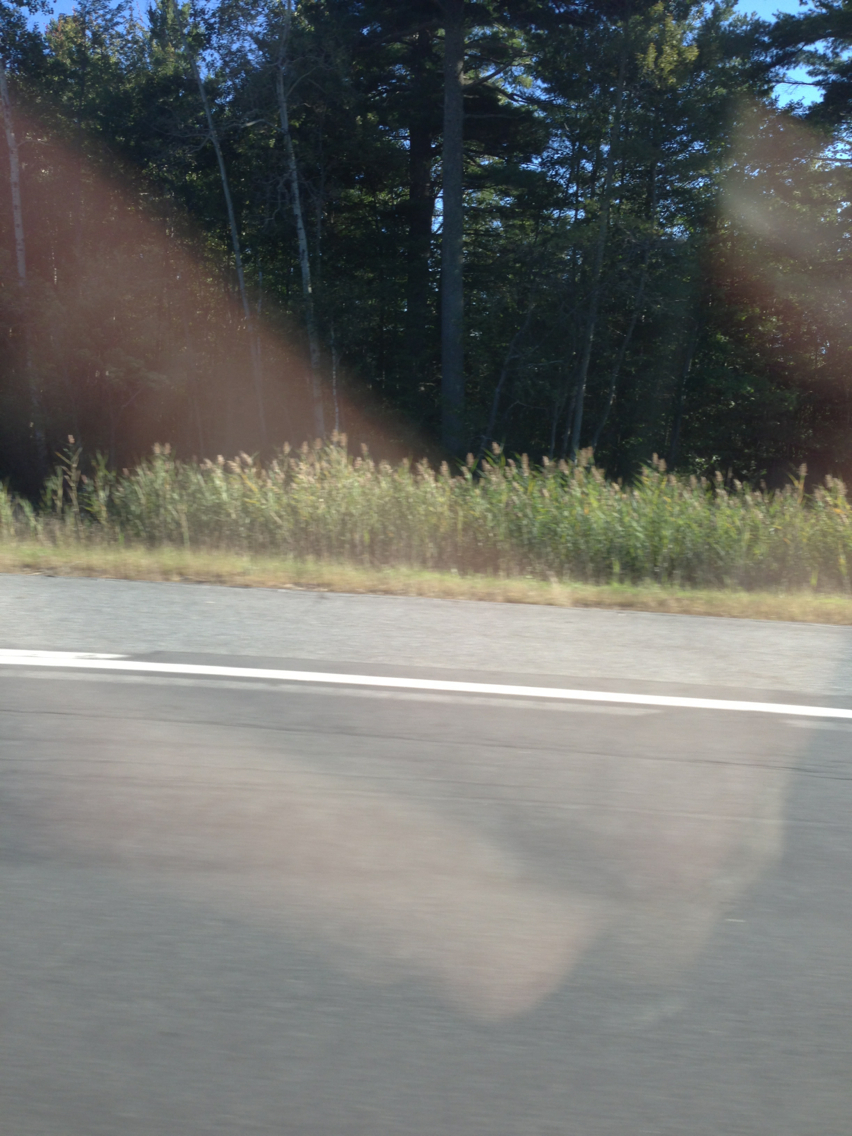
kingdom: Plantae
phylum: Tracheophyta
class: Liliopsida
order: Poales
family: Poaceae
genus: Phragmites
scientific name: Phragmites australis
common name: Common reed
